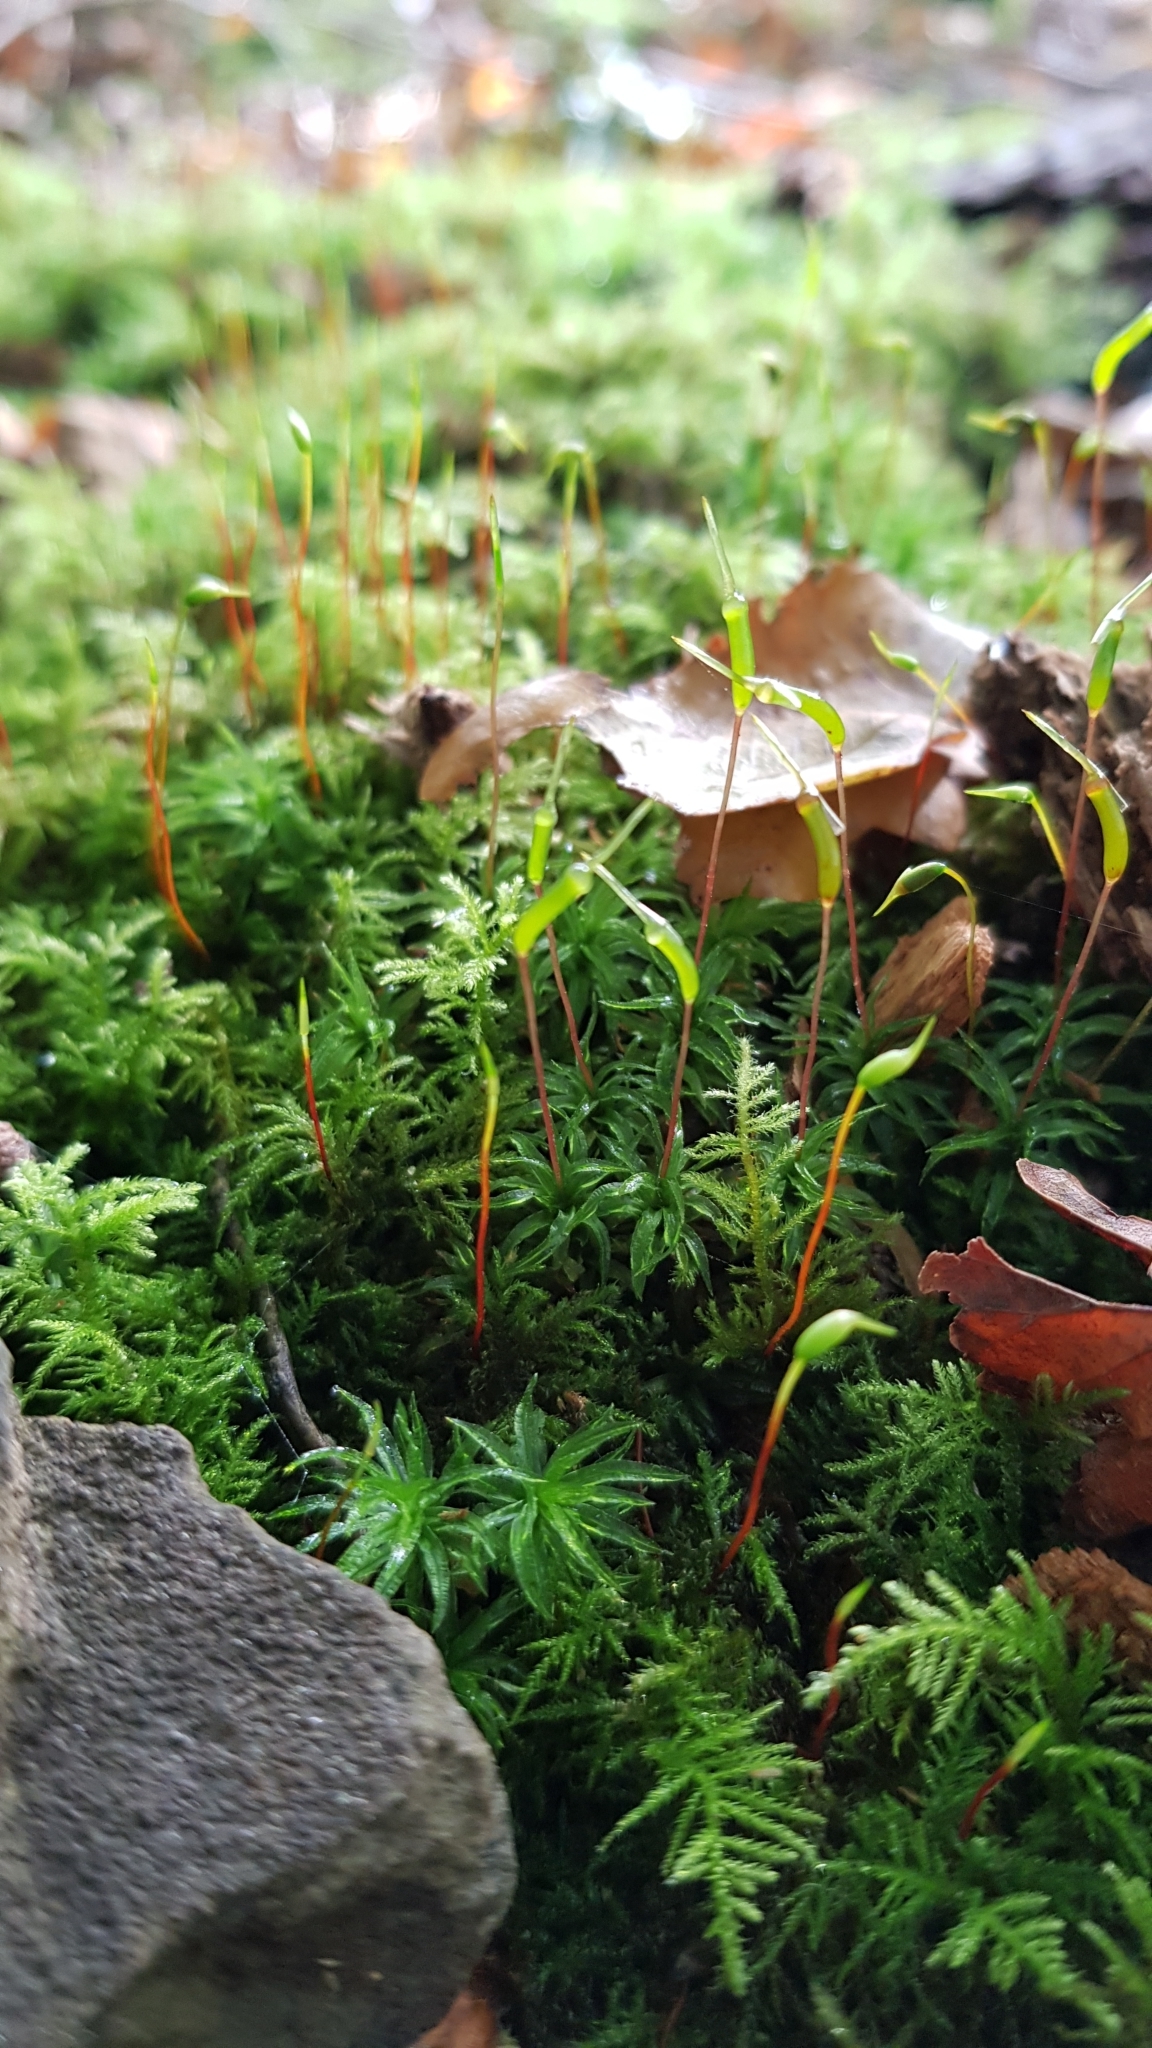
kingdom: Plantae
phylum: Bryophyta
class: Polytrichopsida
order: Polytrichales
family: Polytrichaceae
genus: Atrichum
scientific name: Atrichum undulatum
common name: Common smoothcap
